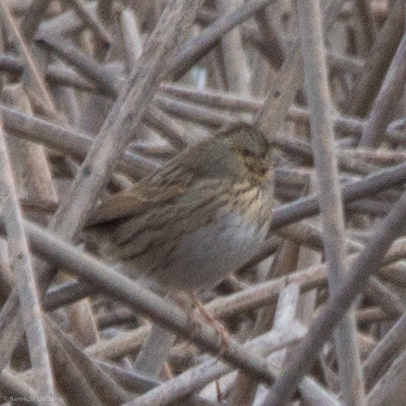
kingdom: Animalia
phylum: Chordata
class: Aves
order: Passeriformes
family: Passerellidae
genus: Melospiza
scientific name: Melospiza lincolnii
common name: Lincoln's sparrow
